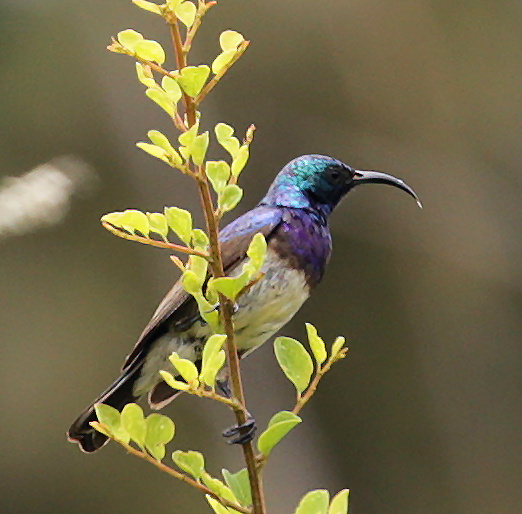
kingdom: Animalia
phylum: Chordata
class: Aves
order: Passeriformes
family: Nectariniidae
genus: Cinnyris
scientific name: Cinnyris talatala
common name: White-bellied sunbird
